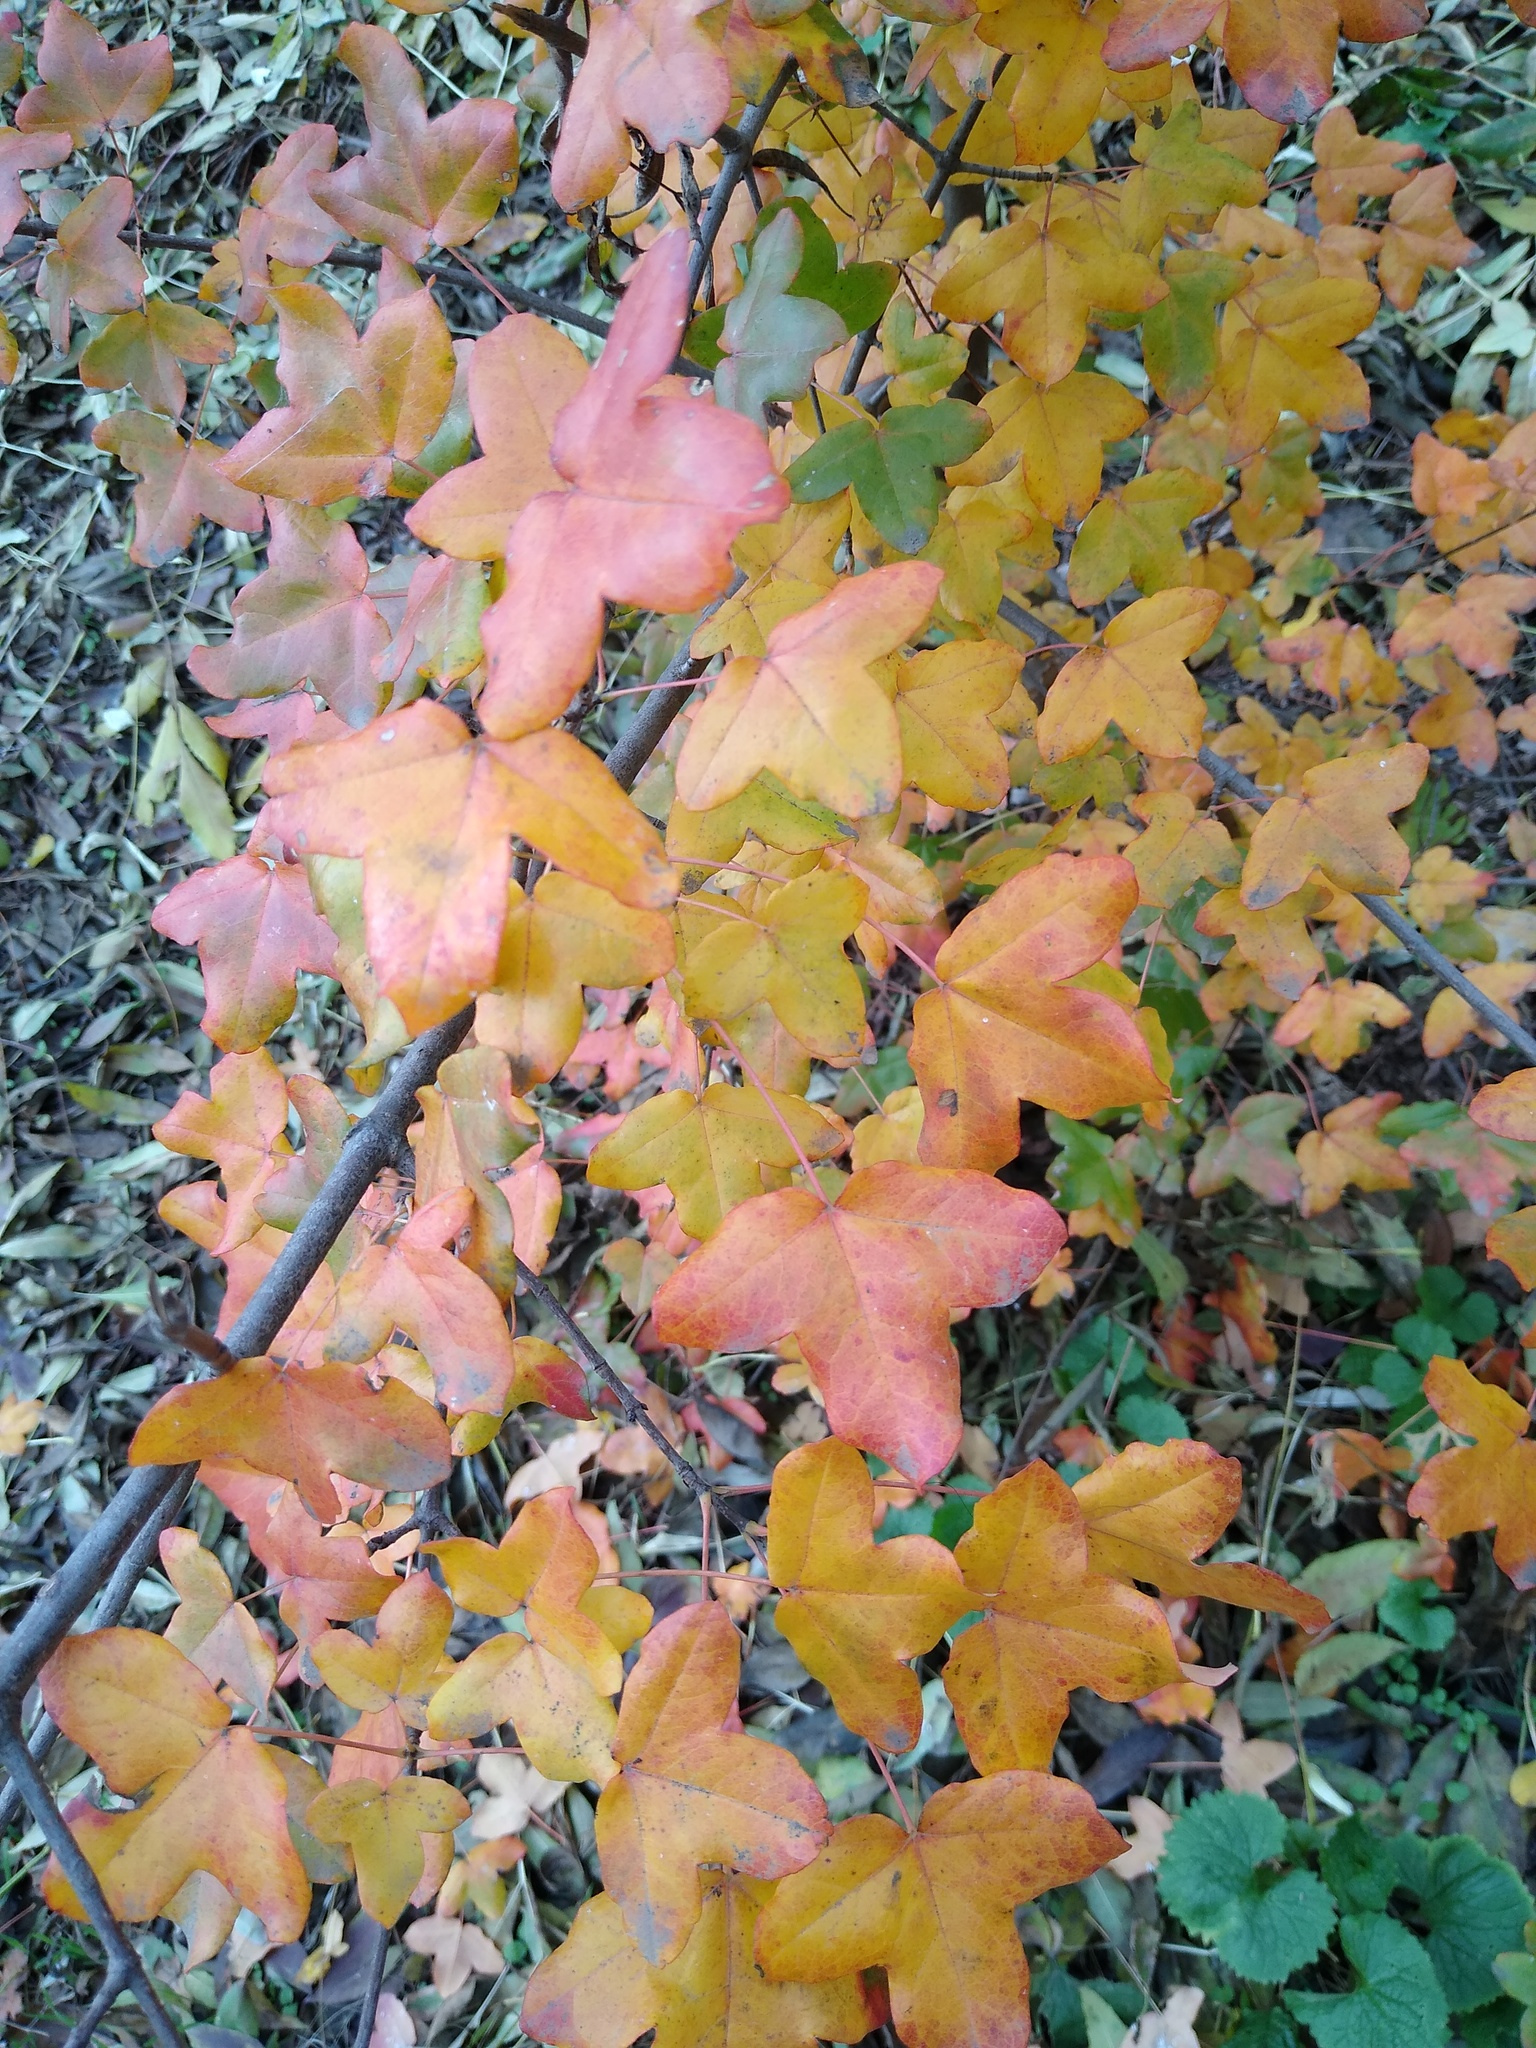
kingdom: Plantae
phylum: Tracheophyta
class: Magnoliopsida
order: Sapindales
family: Sapindaceae
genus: Acer
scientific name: Acer monspessulanum
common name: Montpellier maple
